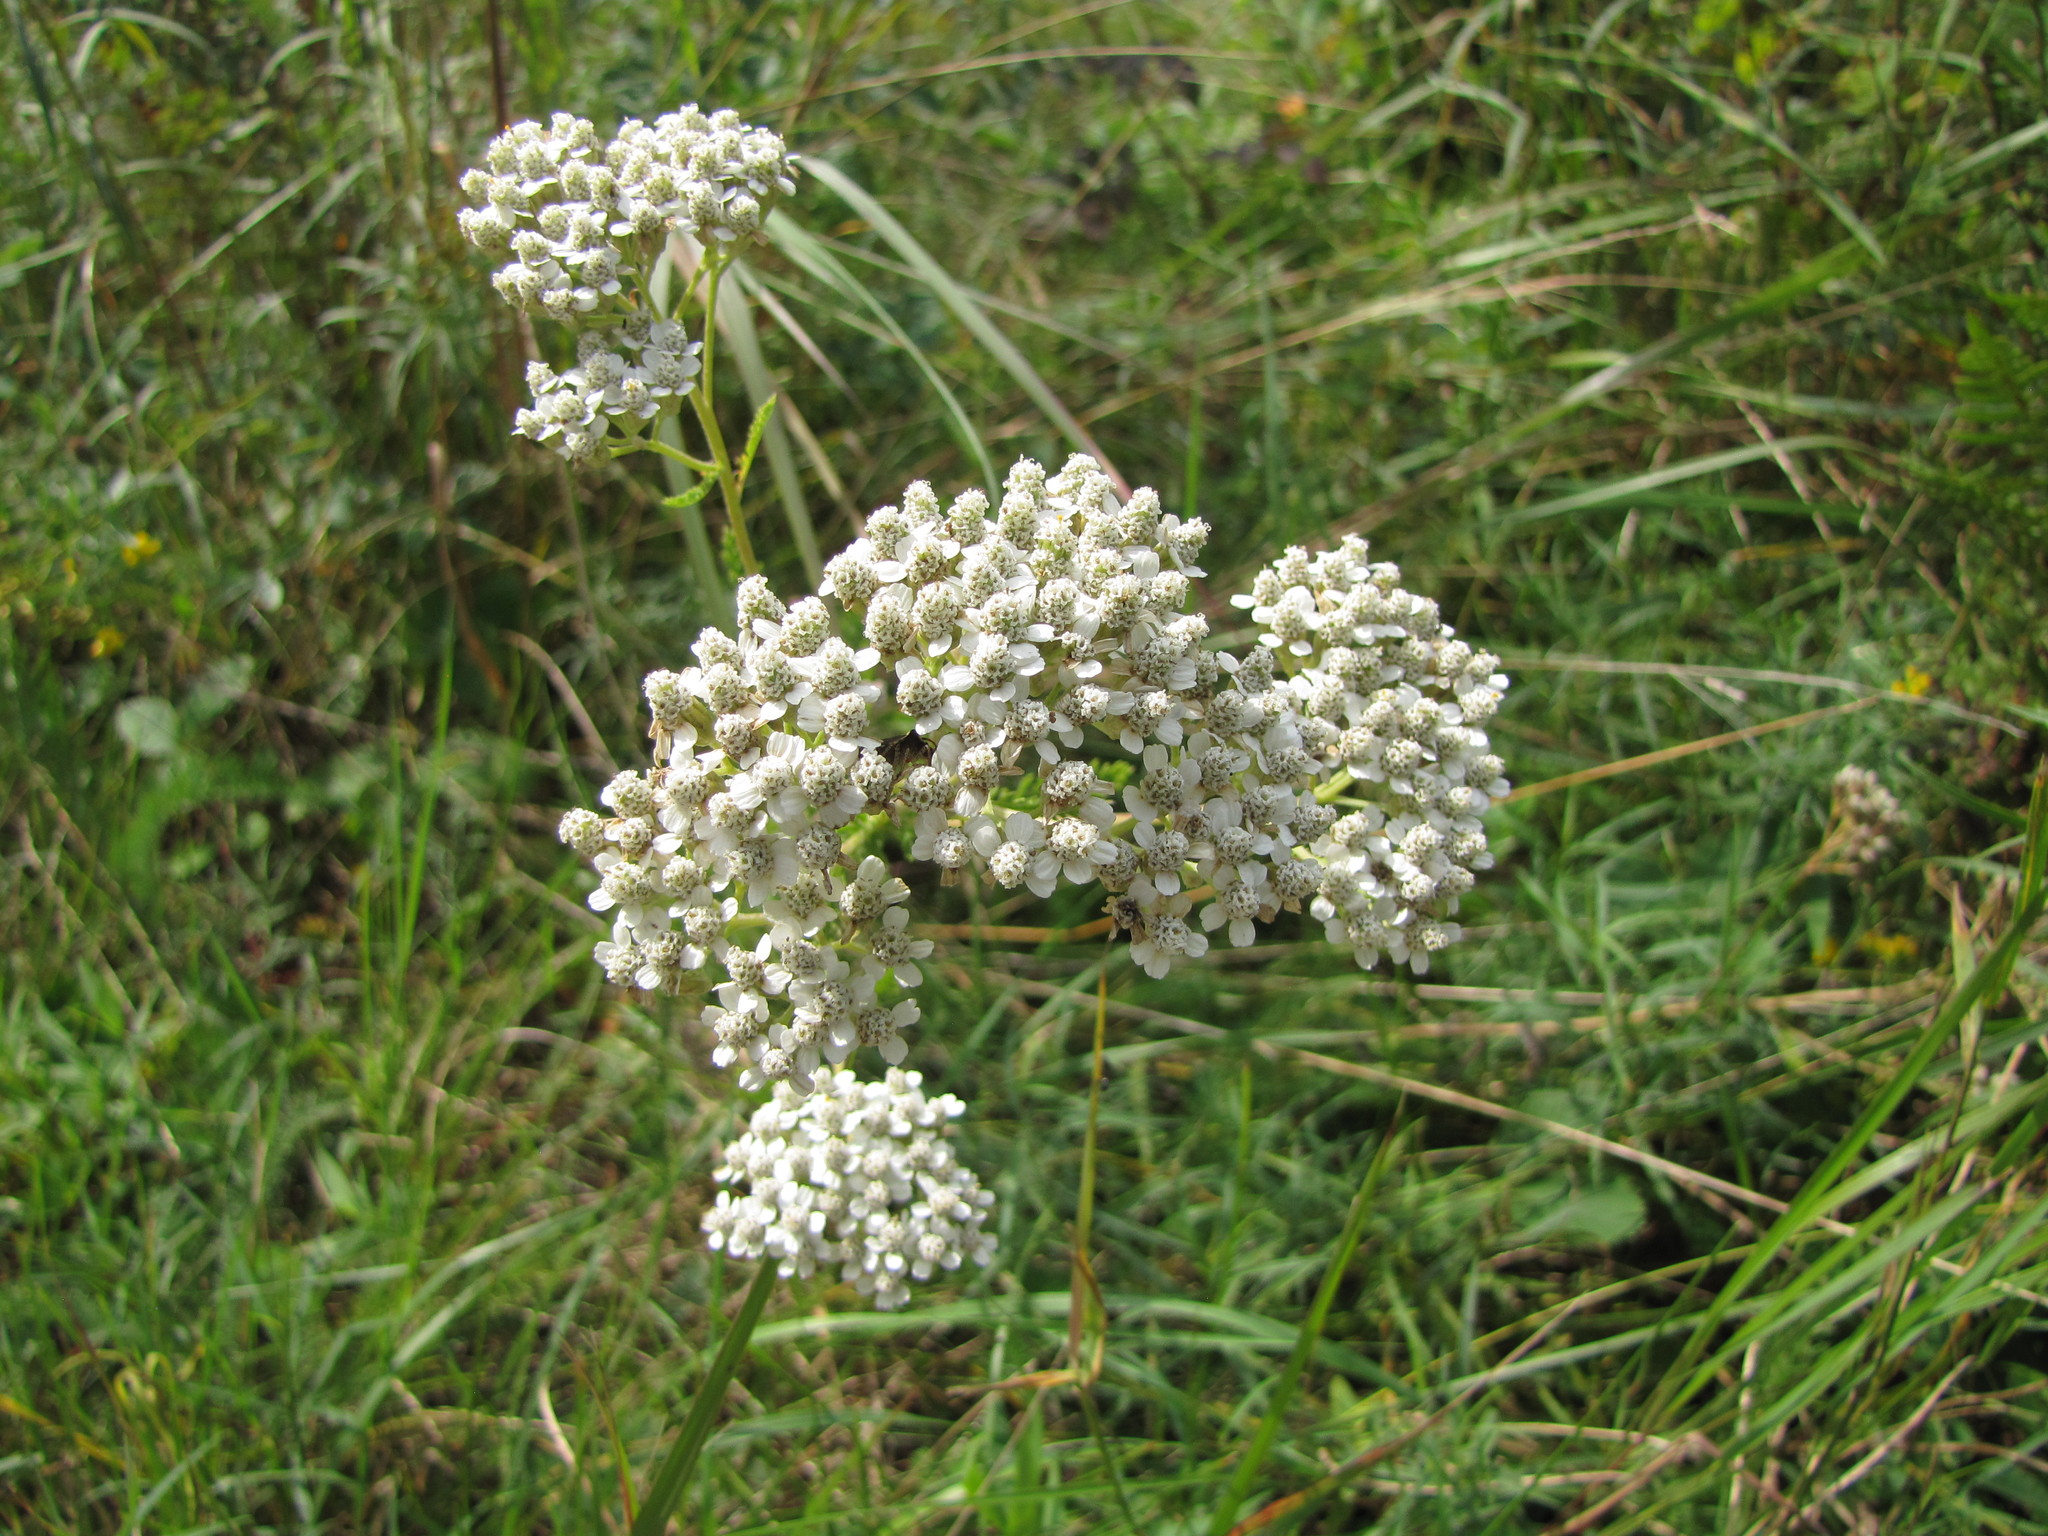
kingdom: Plantae
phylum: Tracheophyta
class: Magnoliopsida
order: Asterales
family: Asteraceae
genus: Achillea
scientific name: Achillea millefolium
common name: Yarrow
